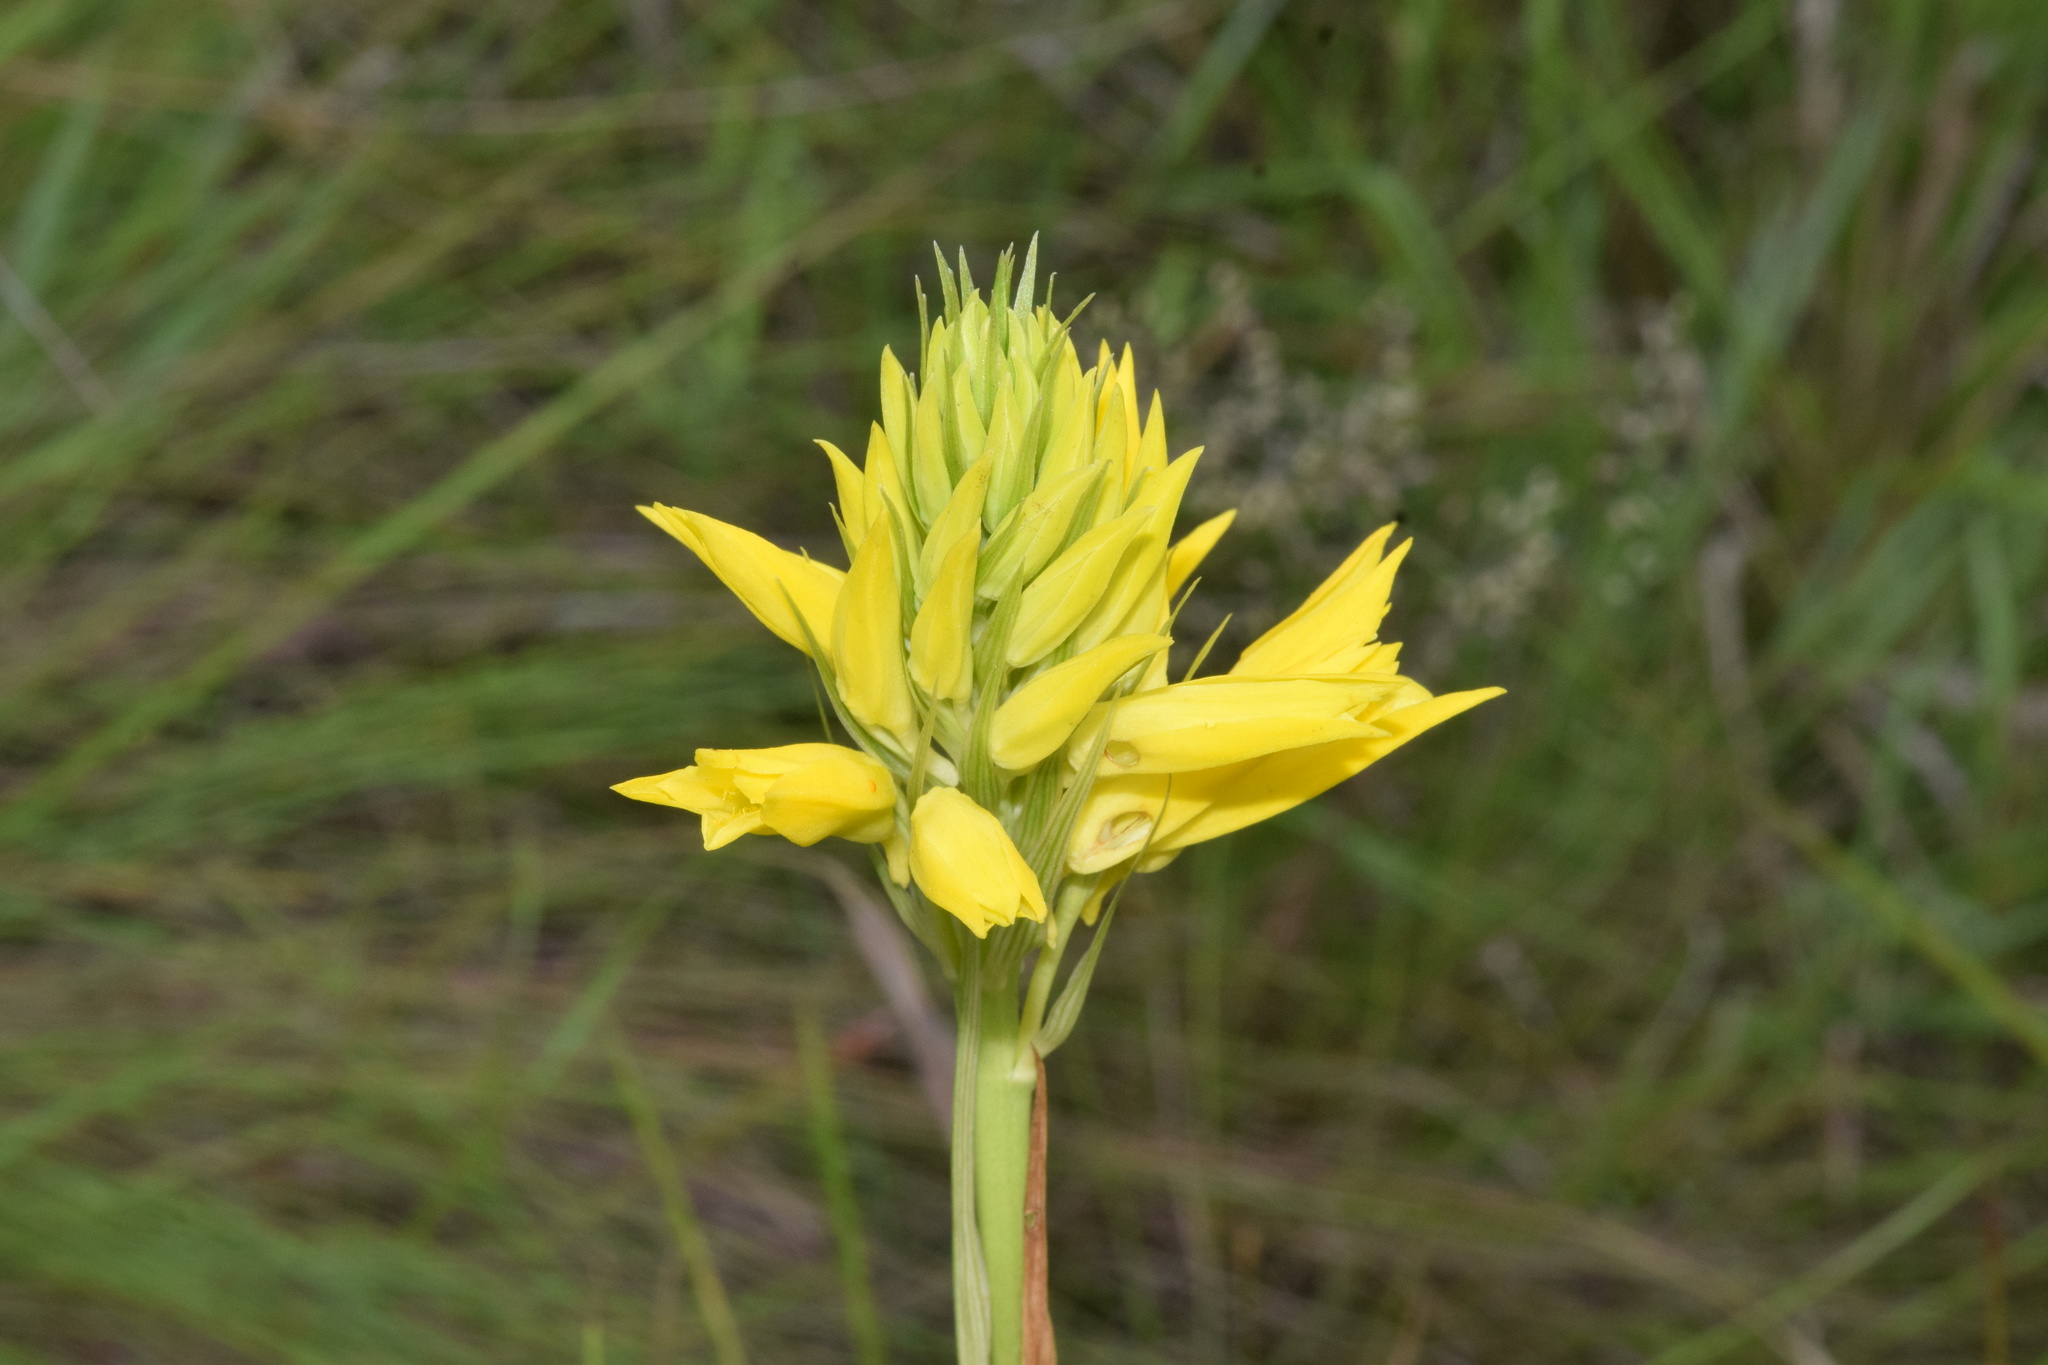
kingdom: Plantae
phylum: Tracheophyta
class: Liliopsida
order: Asparagales
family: Orchidaceae
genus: Eulophia
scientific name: Eulophia ensata
